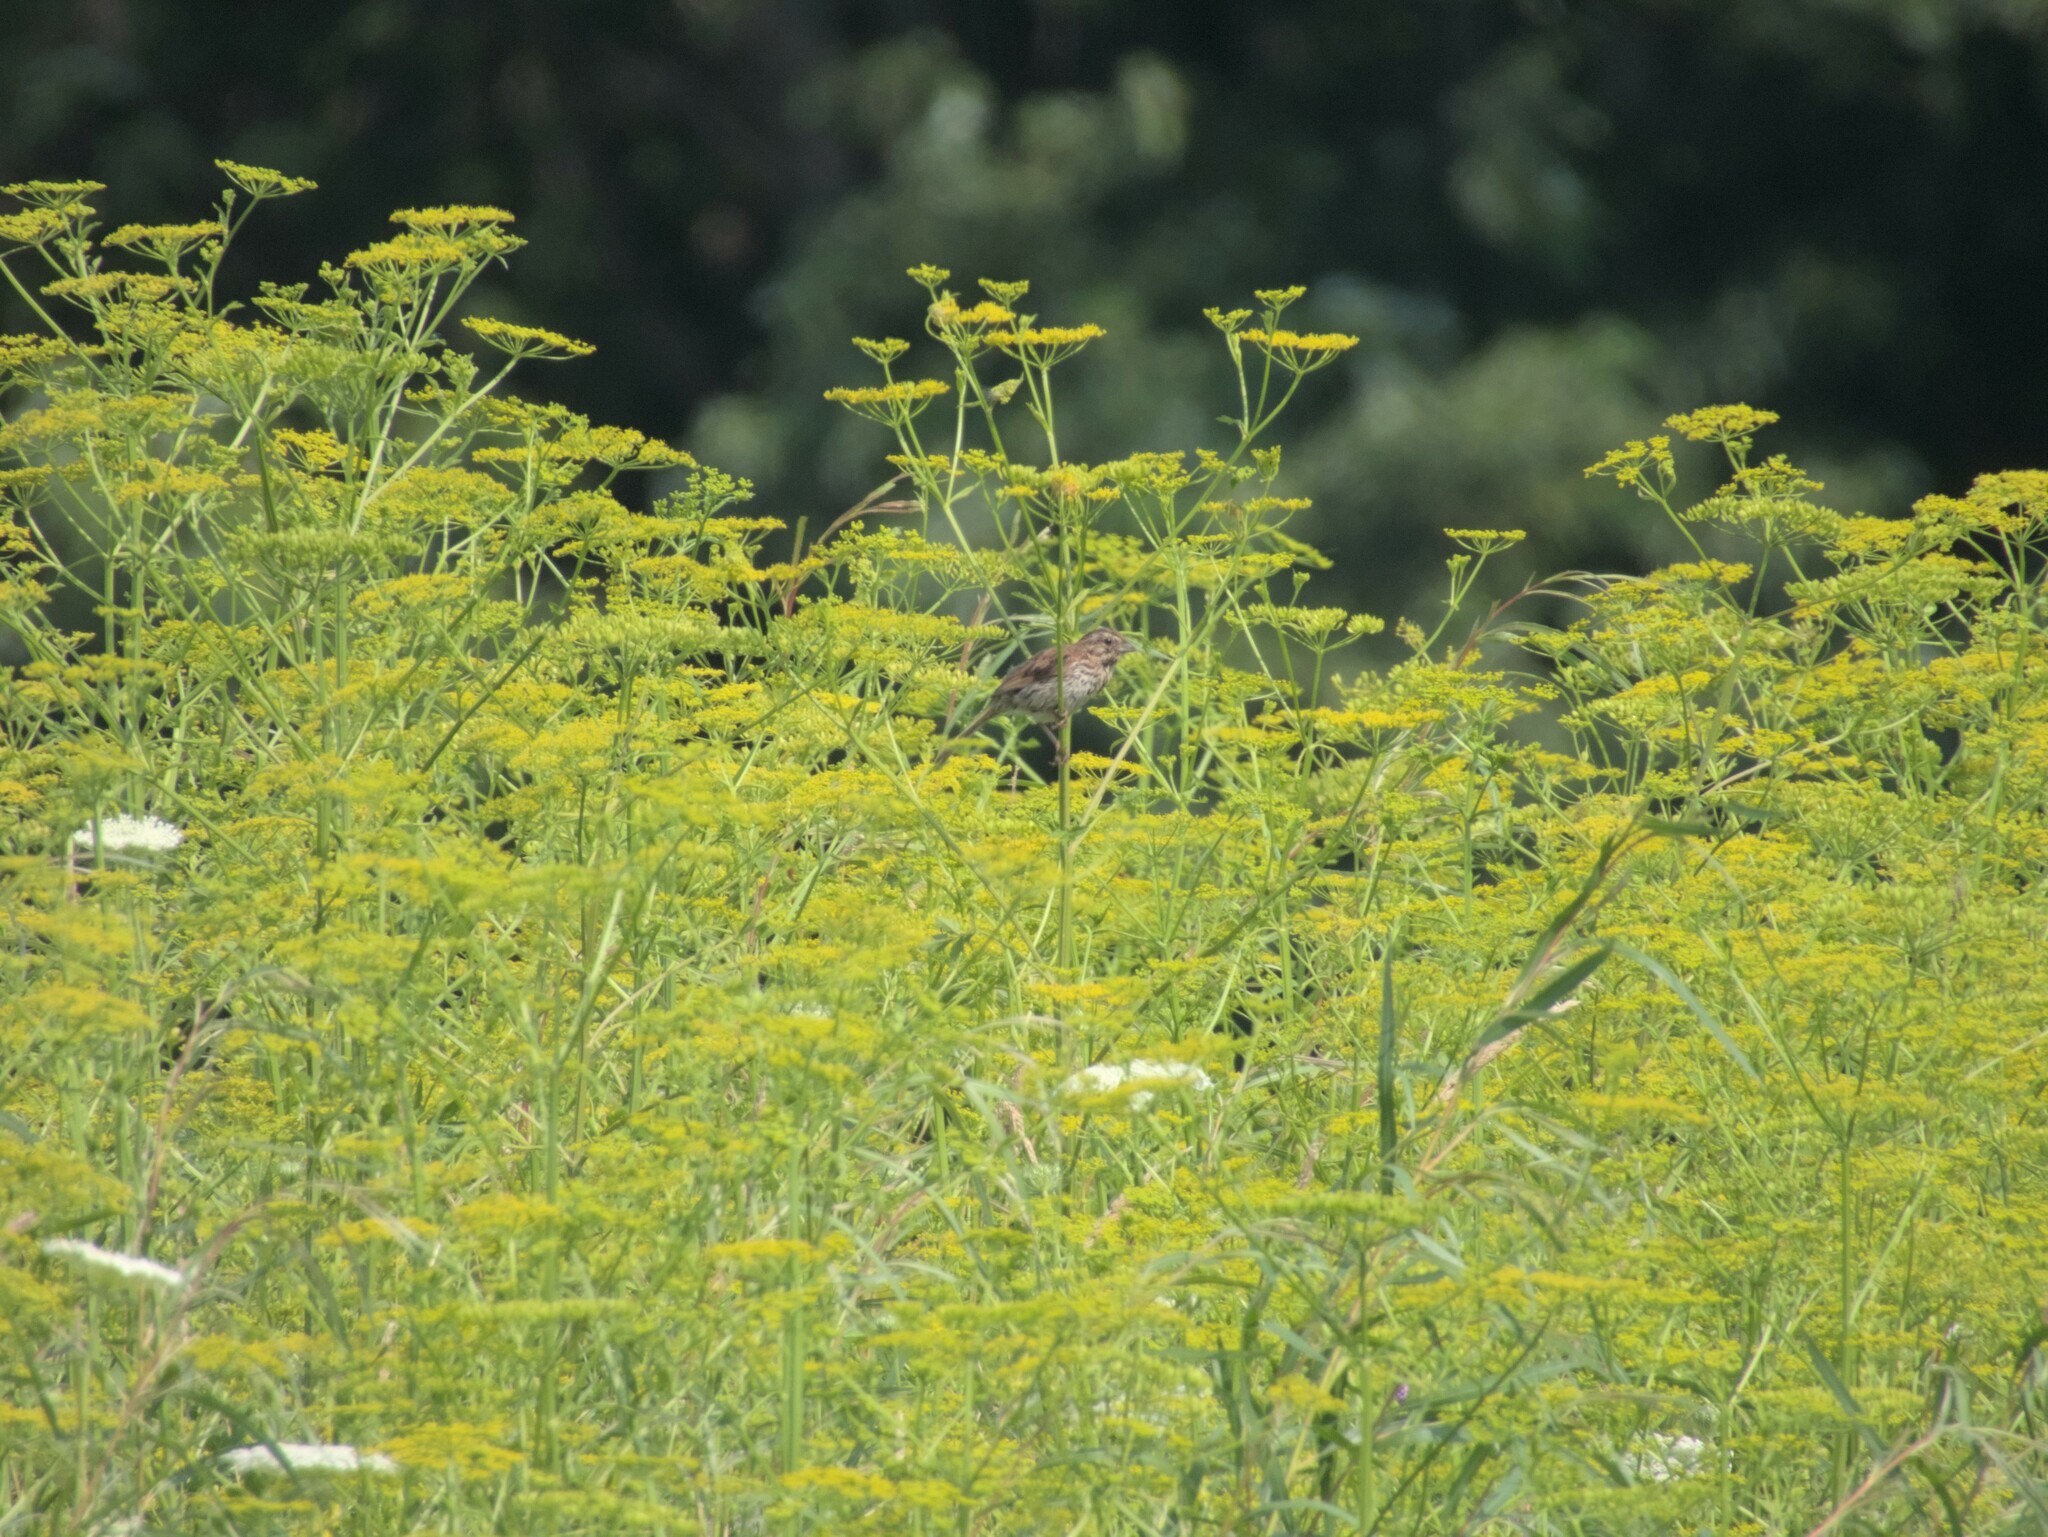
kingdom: Animalia
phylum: Chordata
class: Aves
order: Passeriformes
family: Passerellidae
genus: Melospiza
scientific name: Melospiza melodia
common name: Song sparrow
